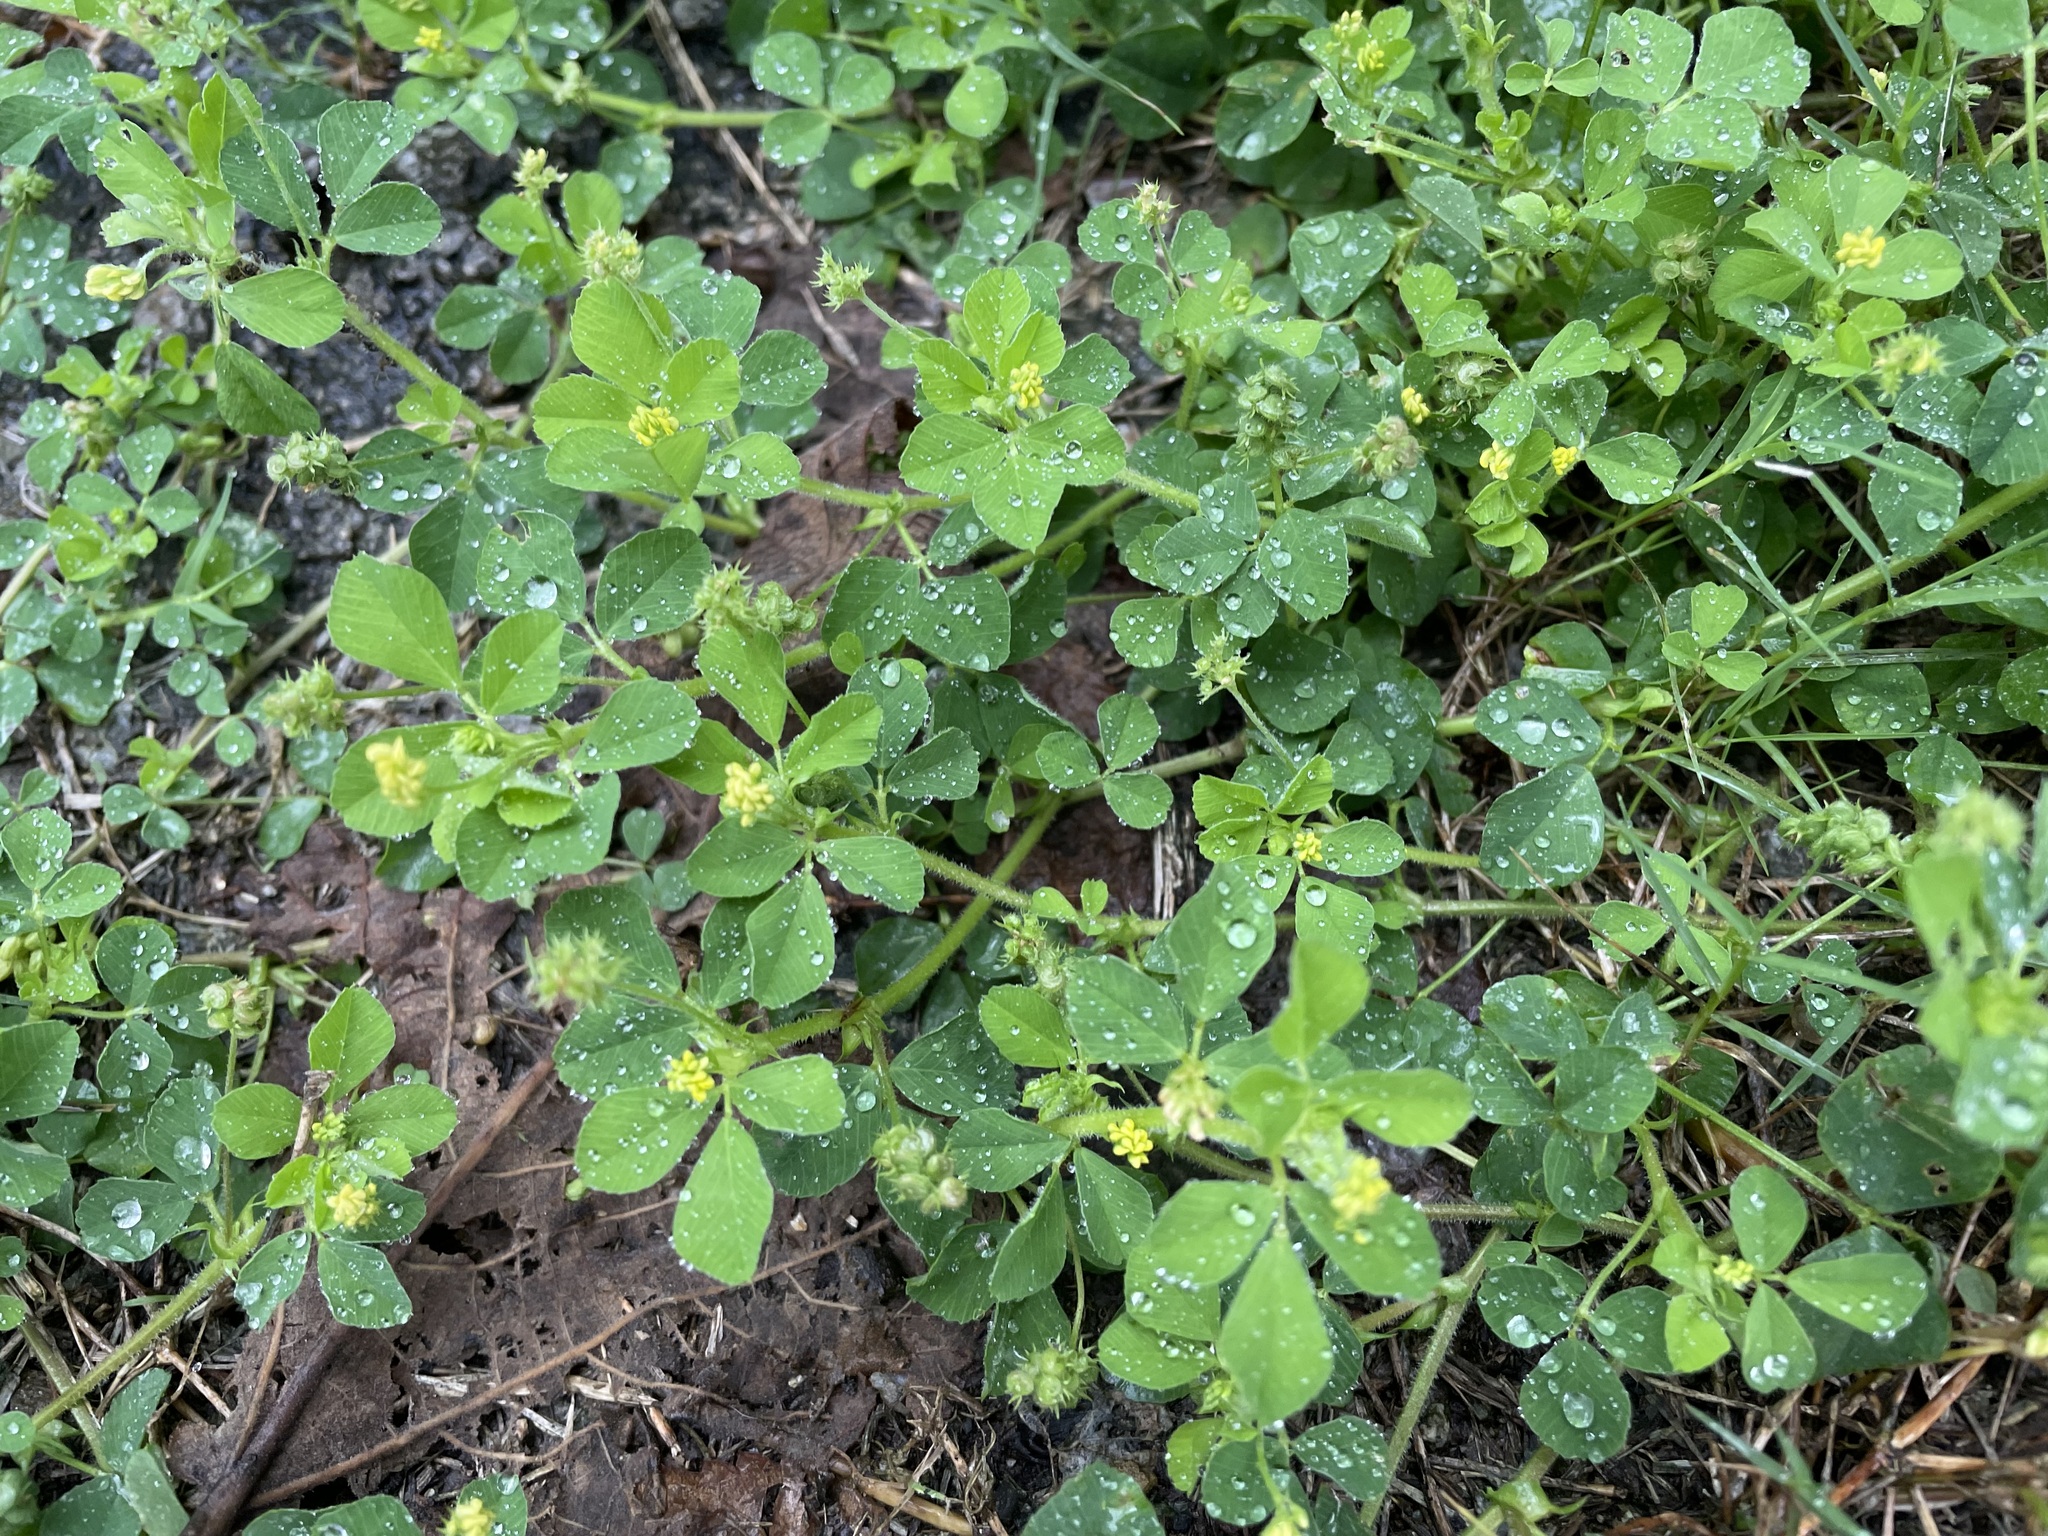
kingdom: Plantae
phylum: Tracheophyta
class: Magnoliopsida
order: Fabales
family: Fabaceae
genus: Medicago
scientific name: Medicago lupulina
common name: Black medick
